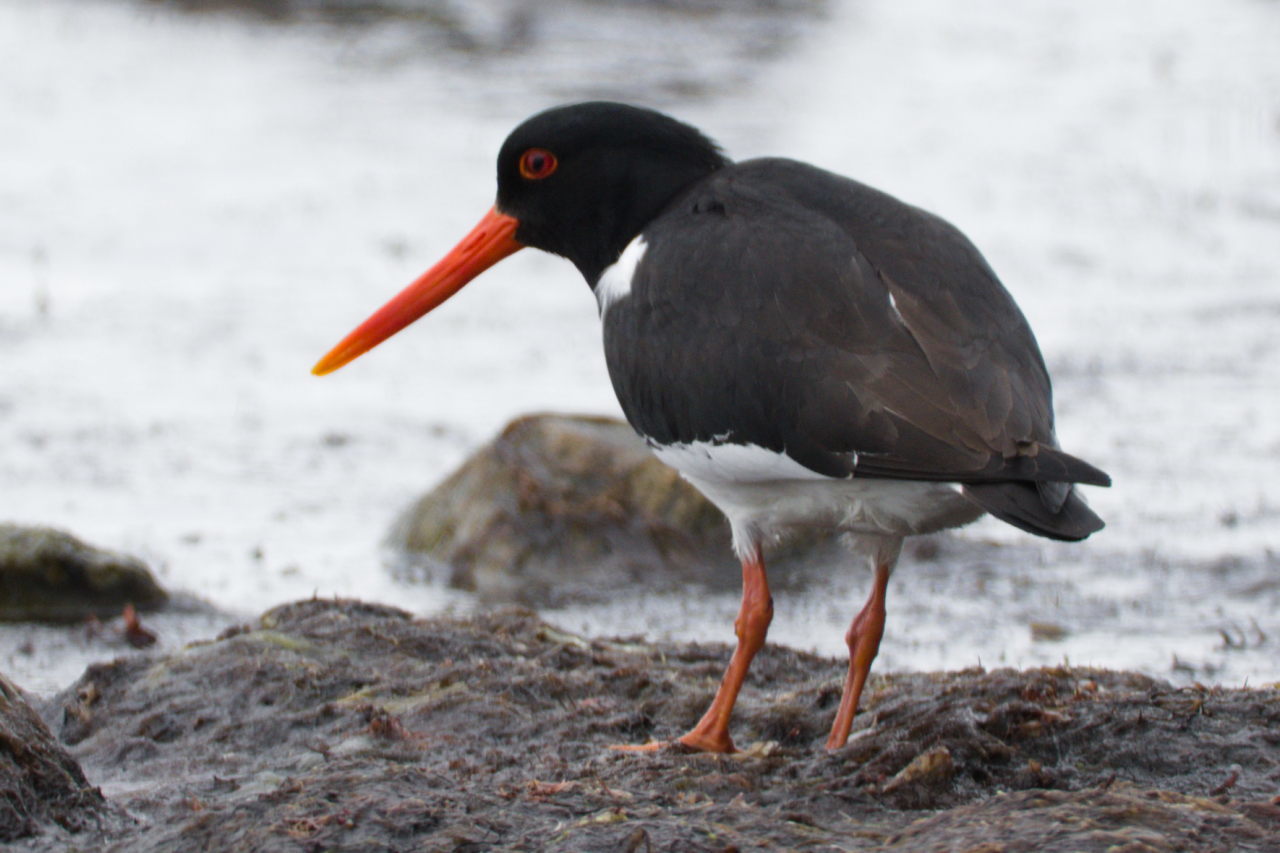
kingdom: Animalia
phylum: Chordata
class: Aves
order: Charadriiformes
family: Haematopodidae
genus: Haematopus
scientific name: Haematopus ostralegus
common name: Eurasian oystercatcher
